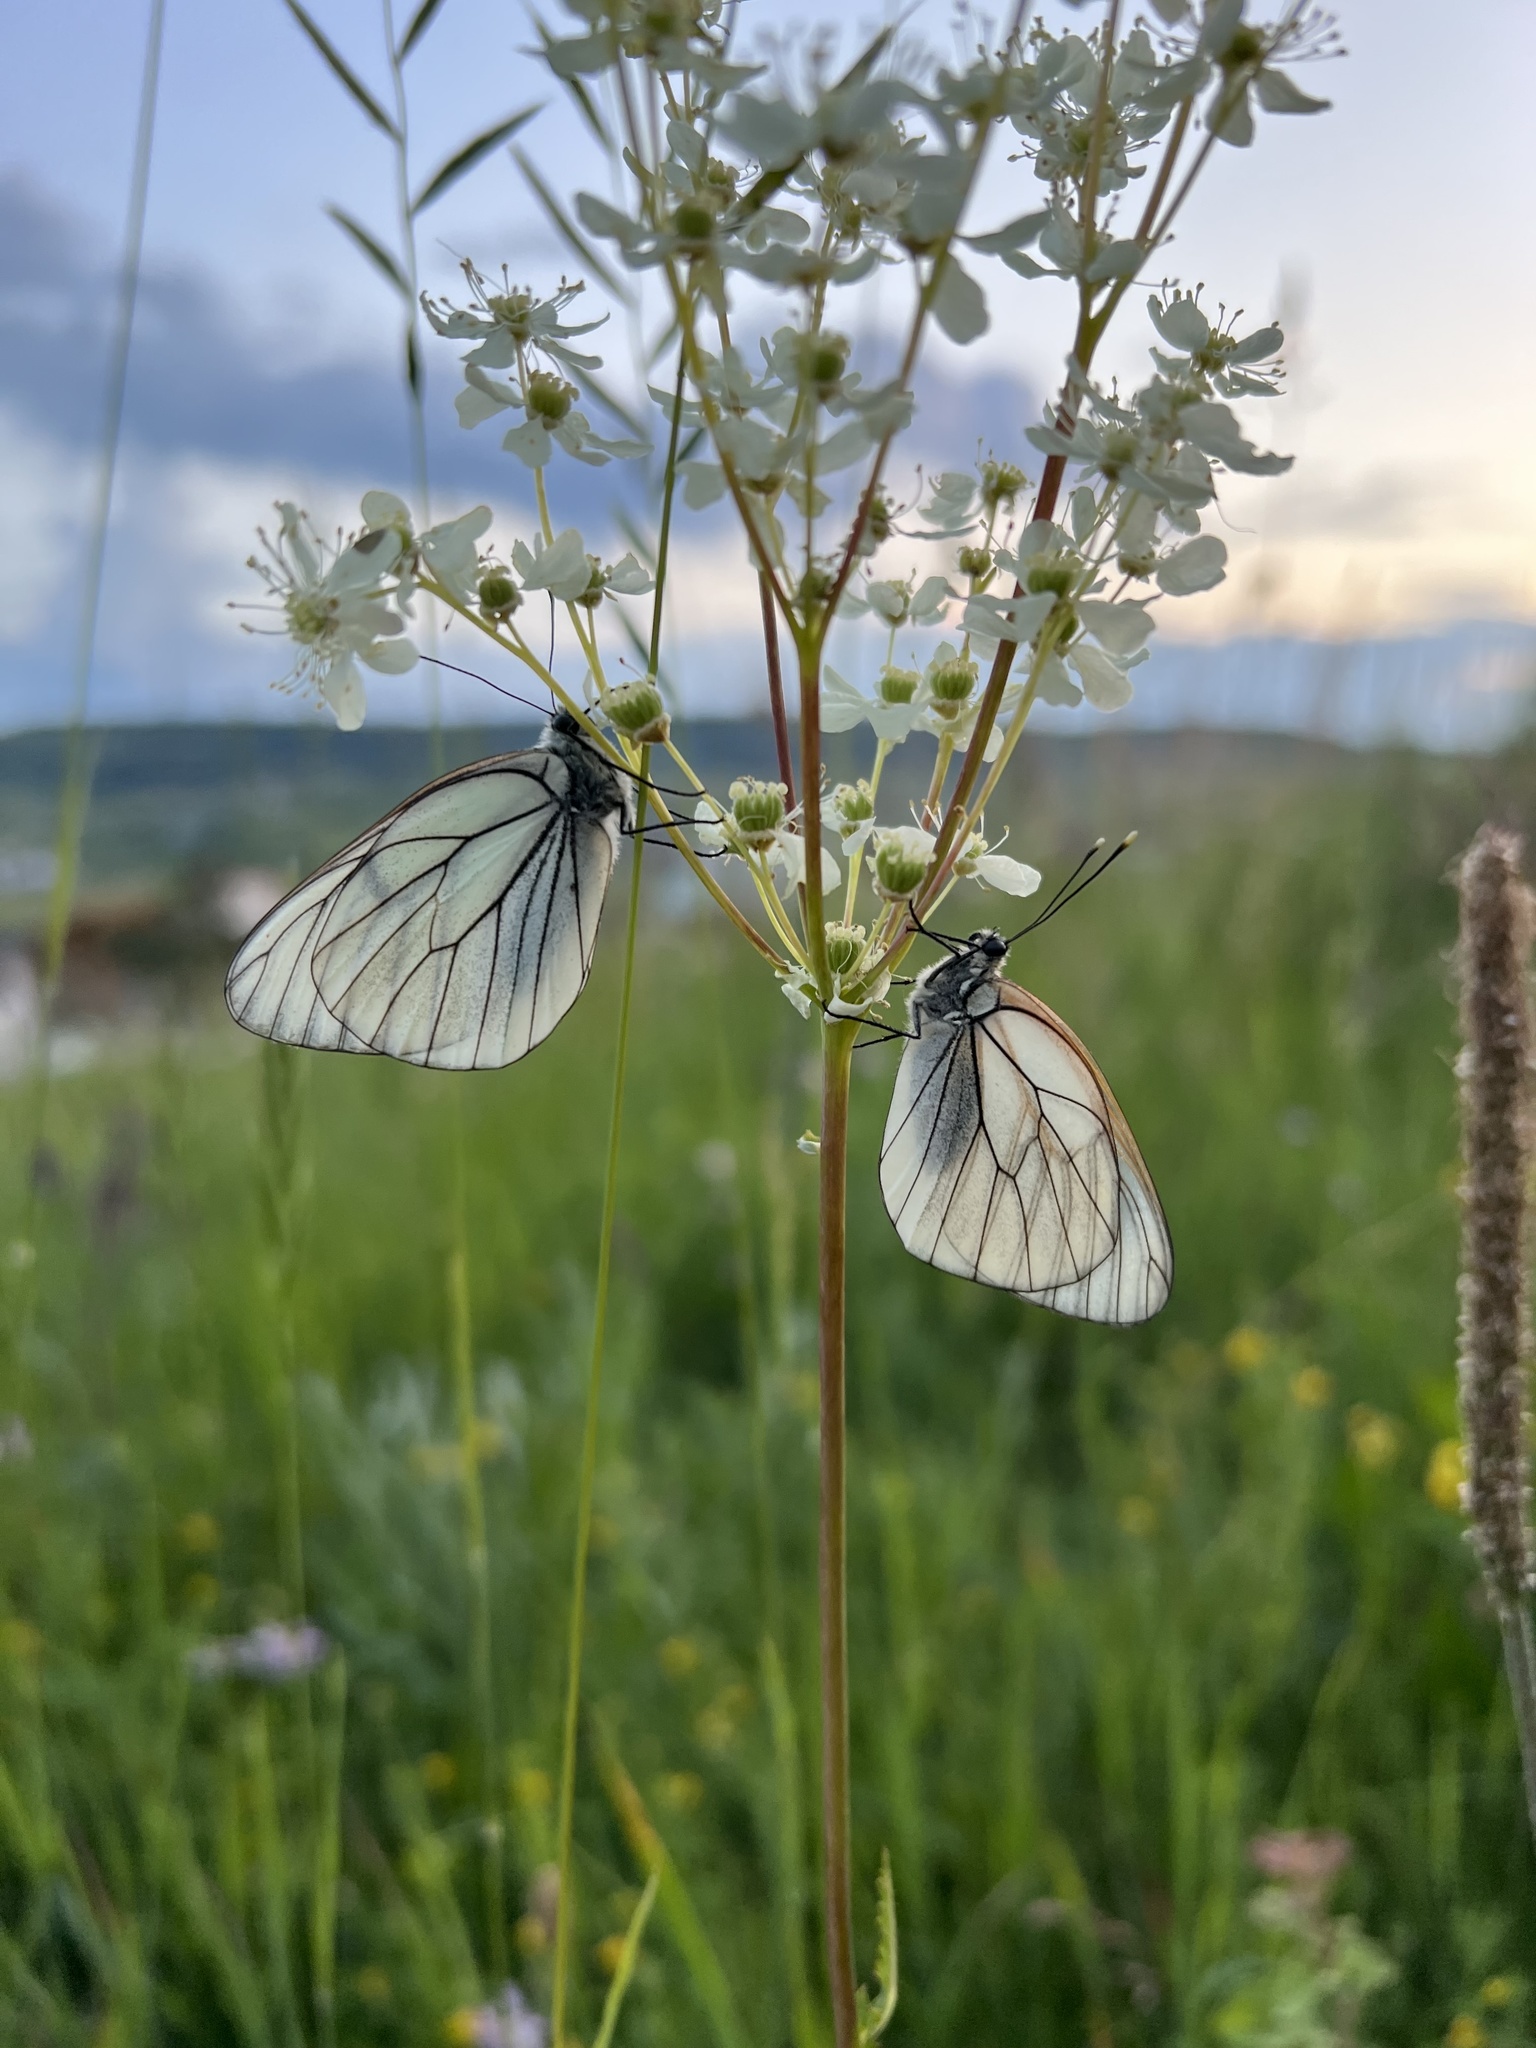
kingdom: Animalia
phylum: Arthropoda
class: Insecta
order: Lepidoptera
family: Pieridae
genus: Aporia
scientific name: Aporia crataegi
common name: Black-veined white
